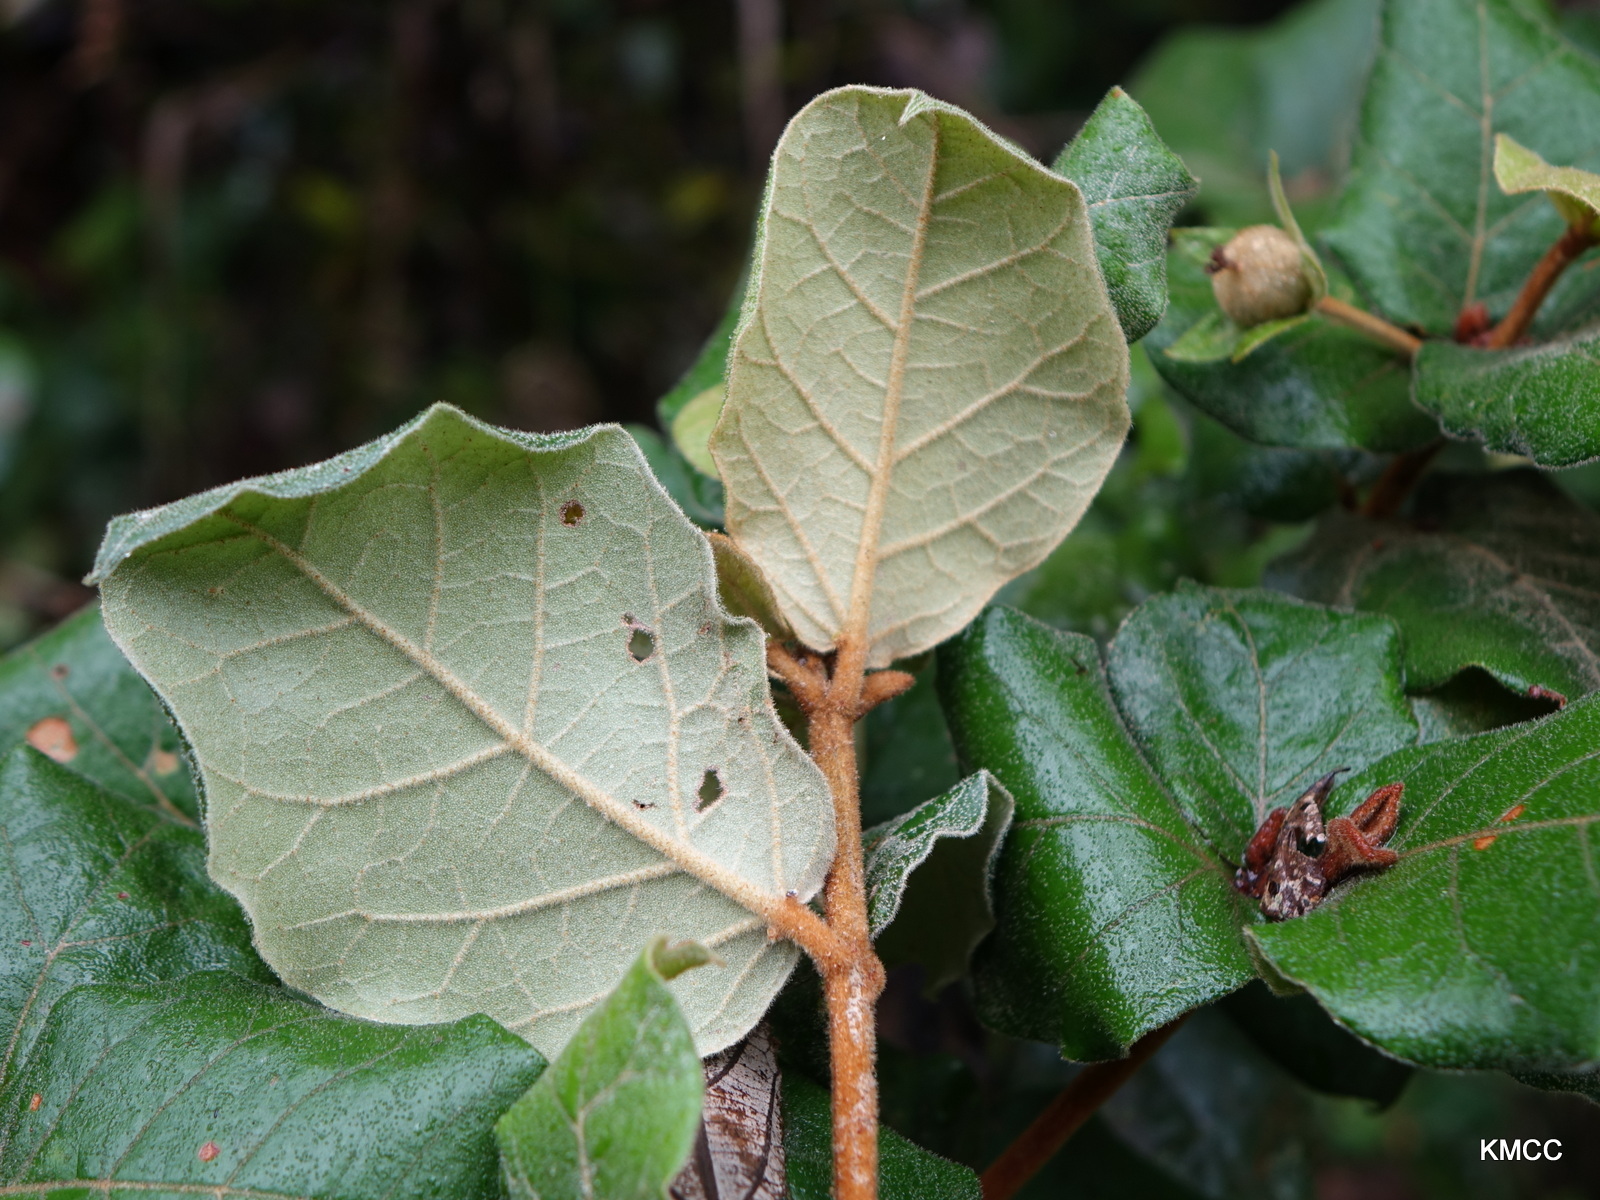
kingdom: Plantae
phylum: Tracheophyta
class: Magnoliopsida
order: Malpighiales
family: Euphorbiaceae
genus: Croton
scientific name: Croton lasiopyrus
